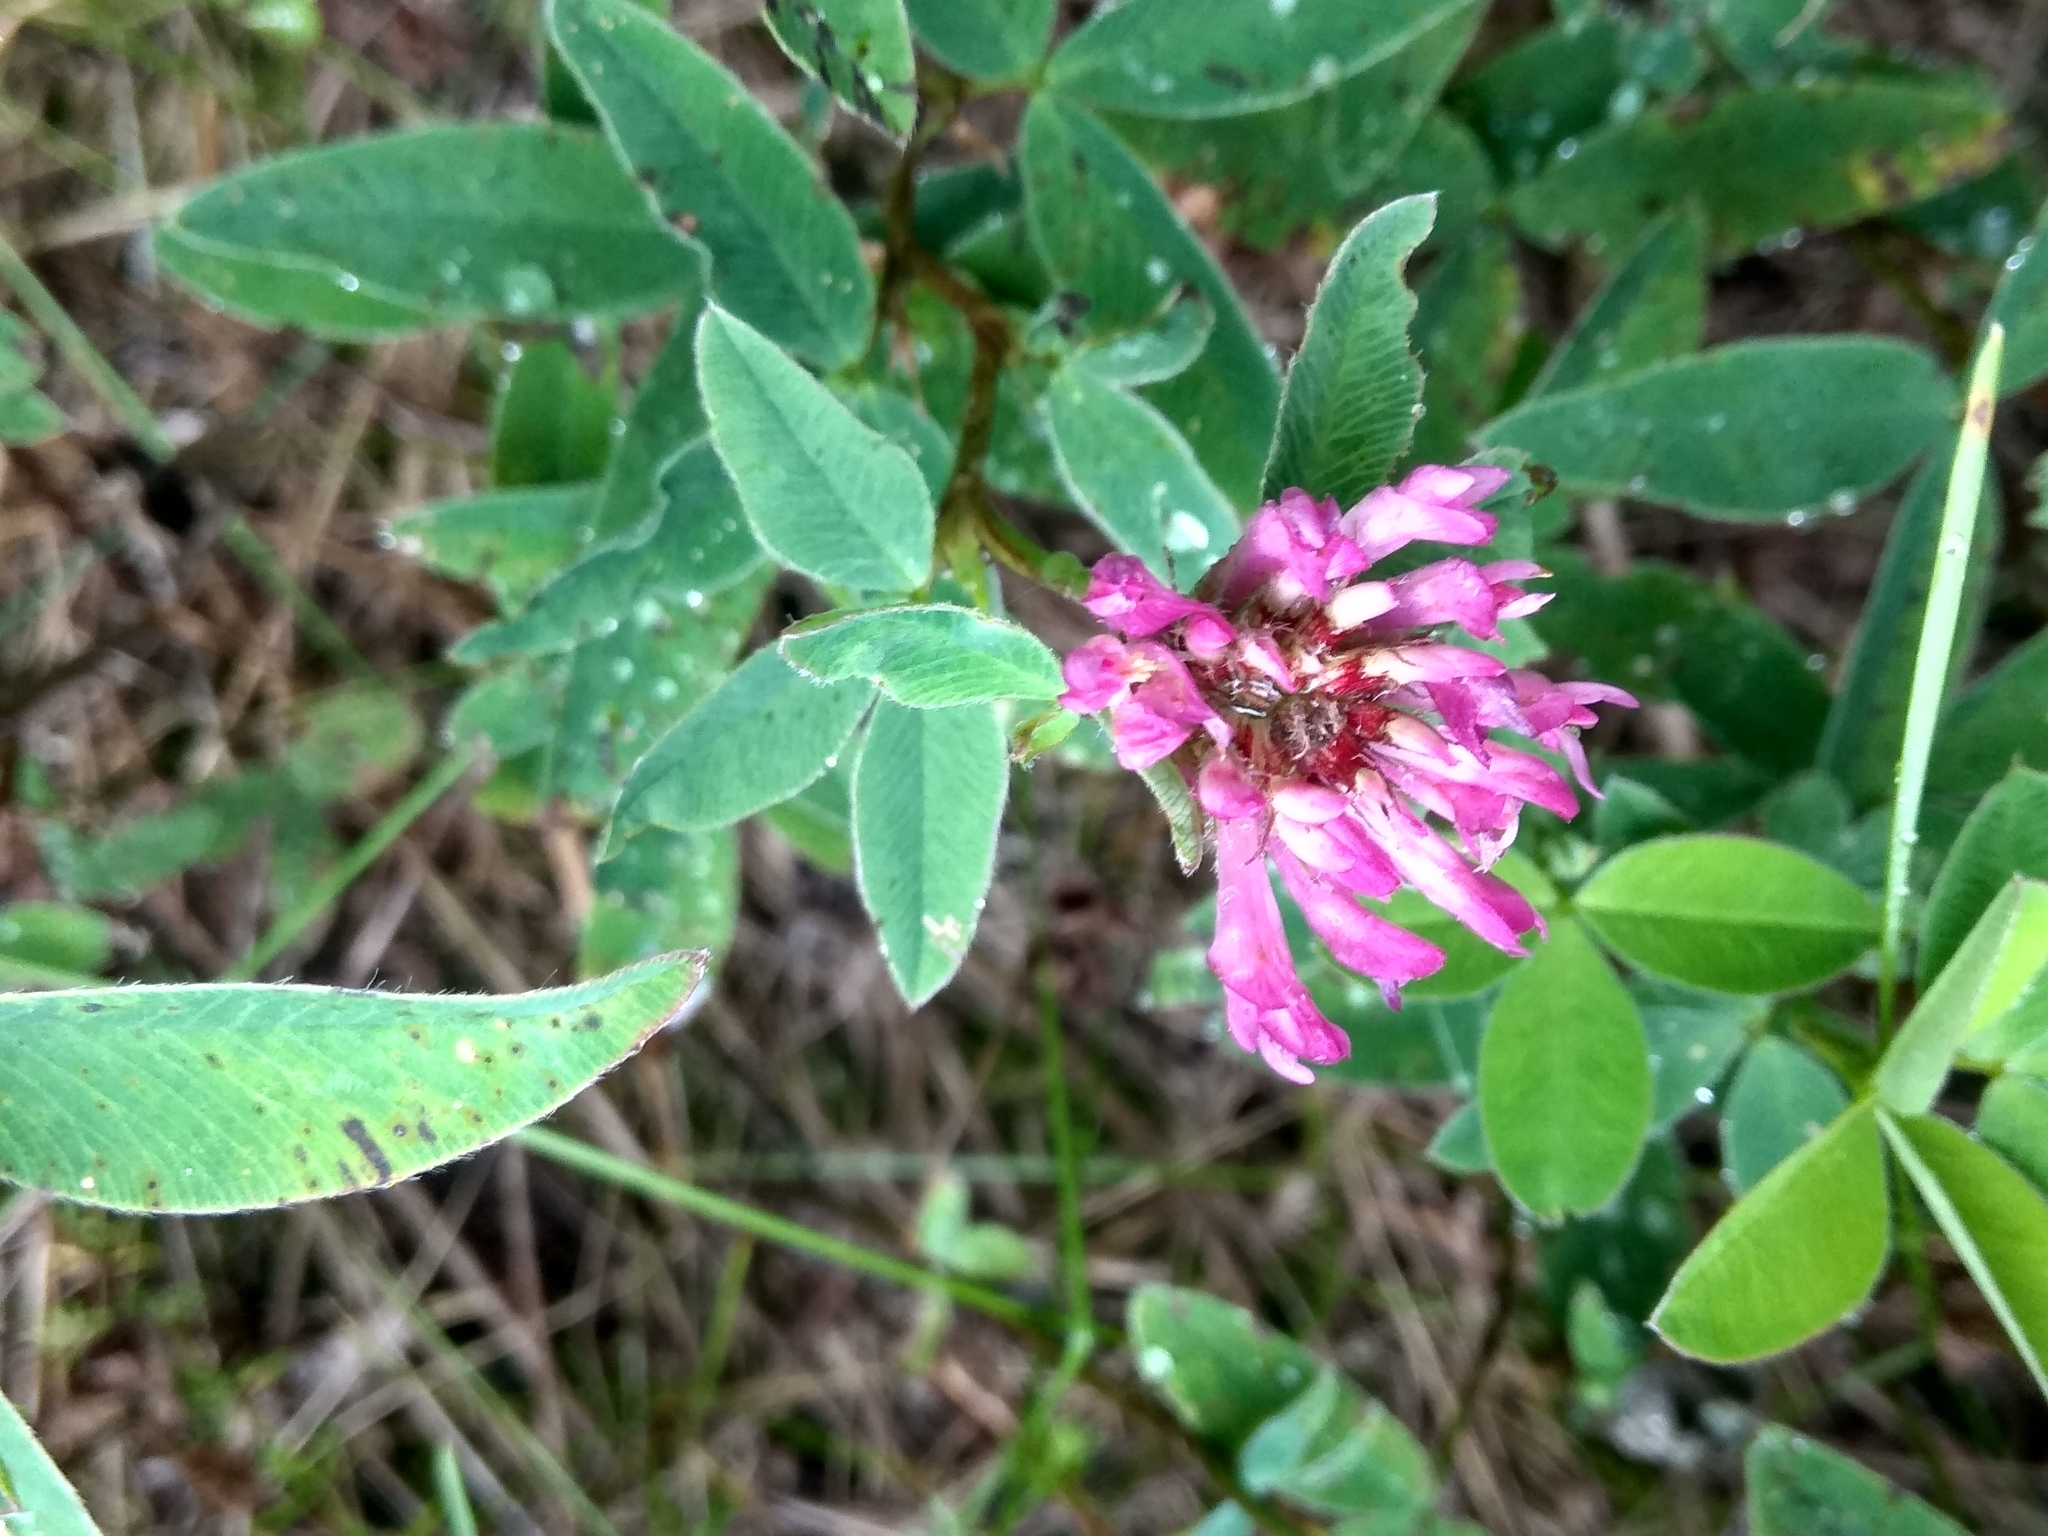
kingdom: Plantae
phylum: Tracheophyta
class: Magnoliopsida
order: Fabales
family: Fabaceae
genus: Trifolium
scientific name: Trifolium medium
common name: Zigzag clover
